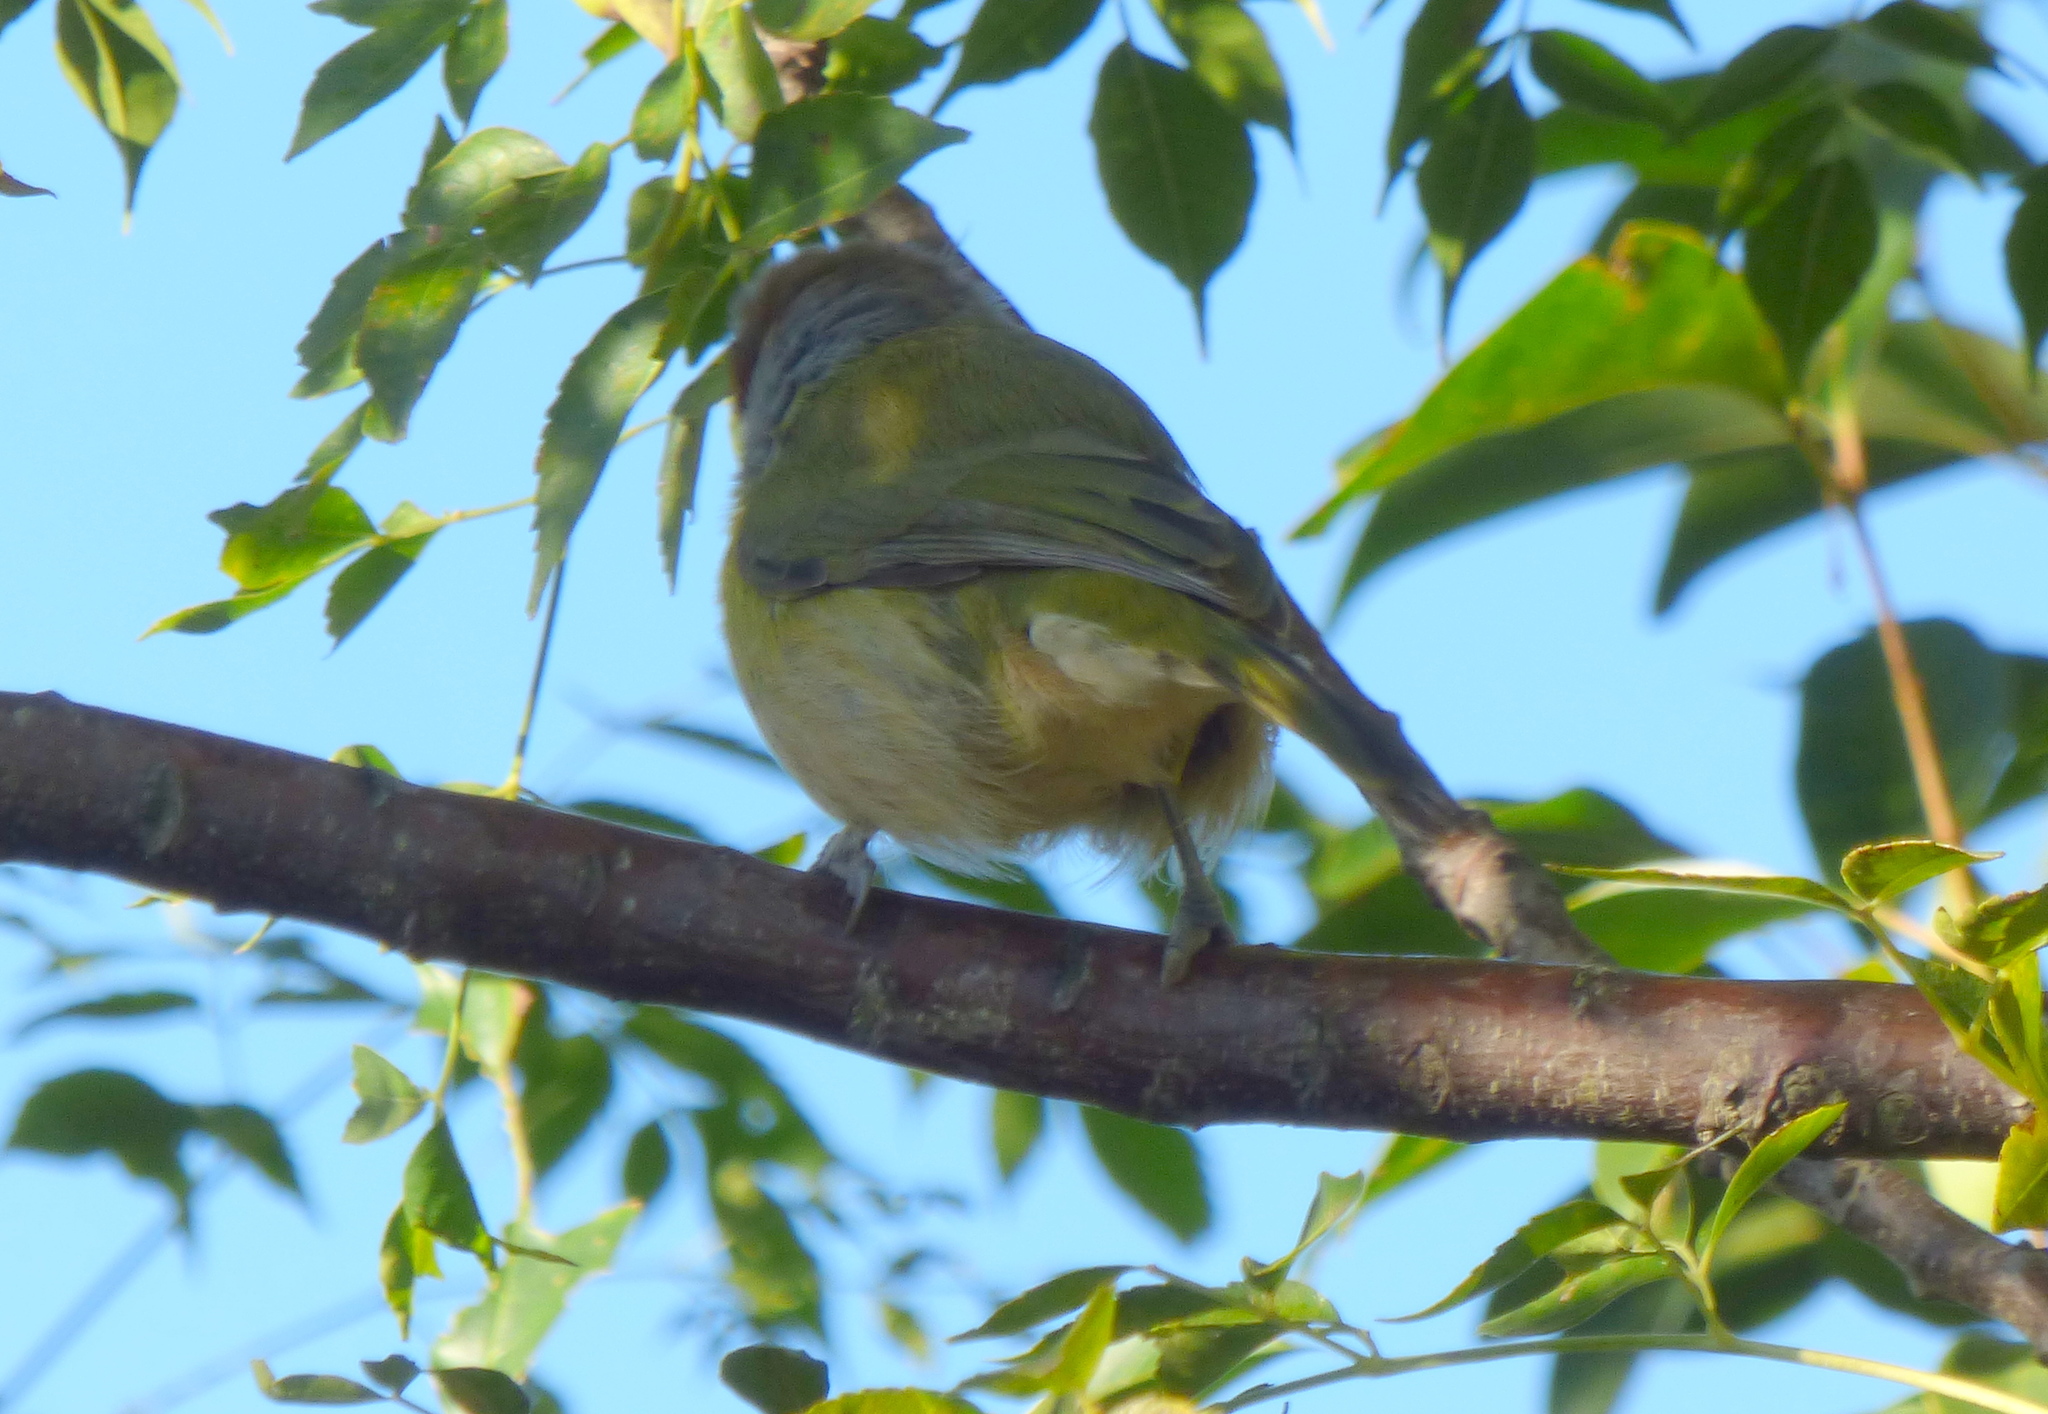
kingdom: Animalia
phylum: Chordata
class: Aves
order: Passeriformes
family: Vireonidae
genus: Cyclarhis
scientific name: Cyclarhis gujanensis
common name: Rufous-browed peppershrike
